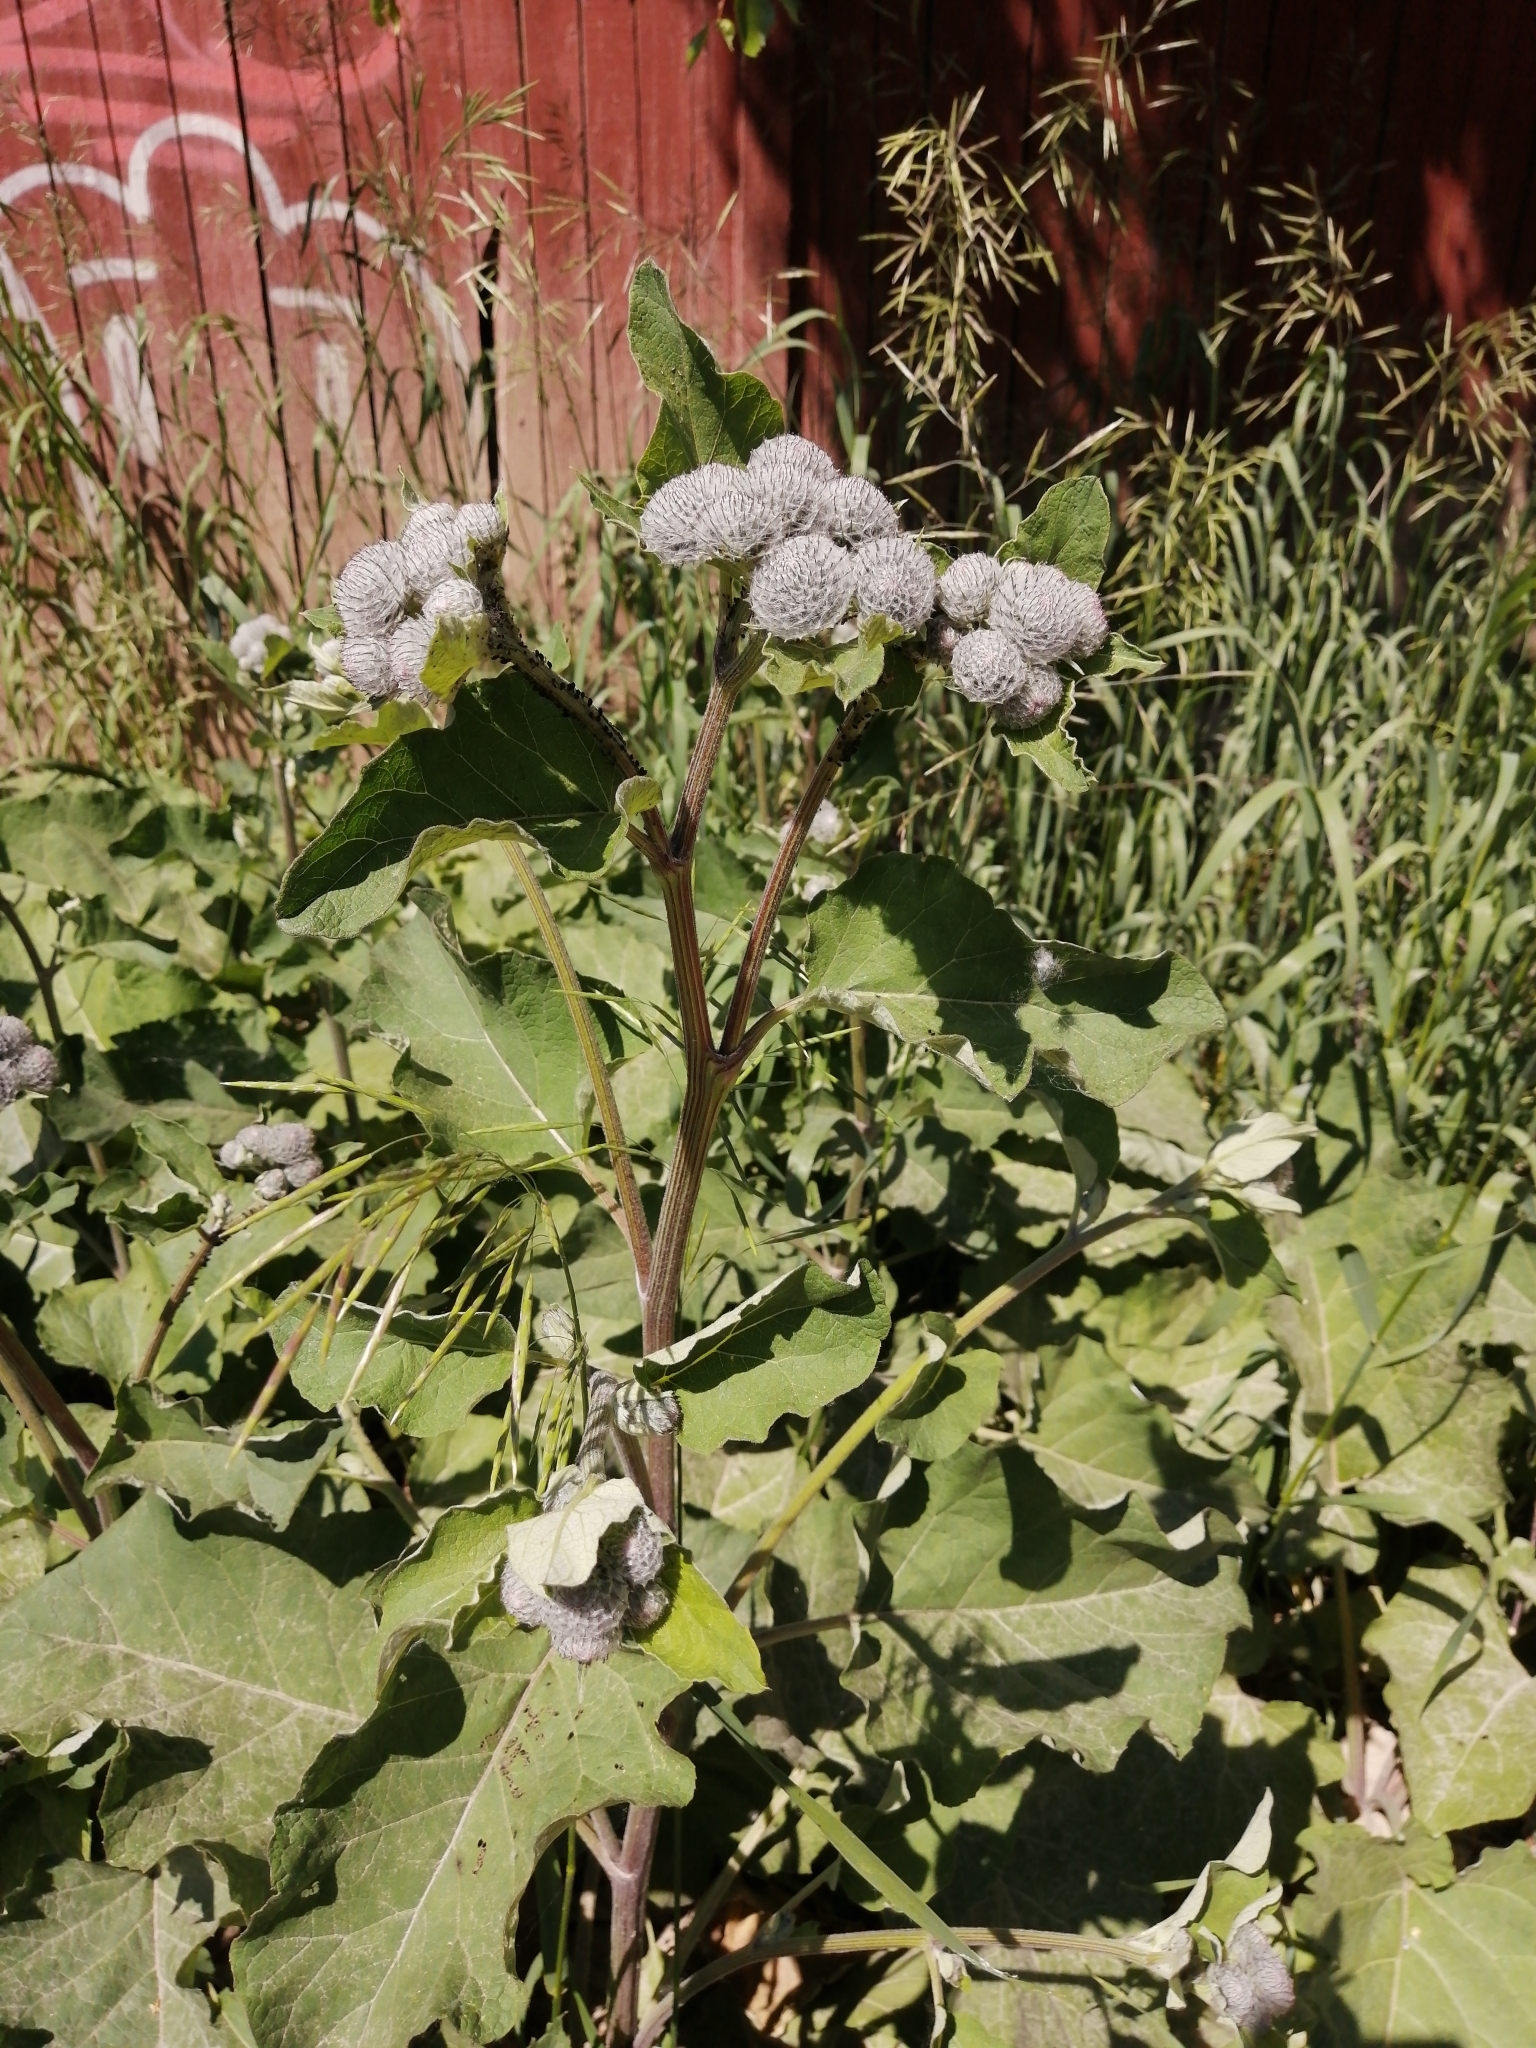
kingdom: Plantae
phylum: Tracheophyta
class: Magnoliopsida
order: Asterales
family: Asteraceae
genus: Arctium
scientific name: Arctium tomentosum
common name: Woolly burdock
